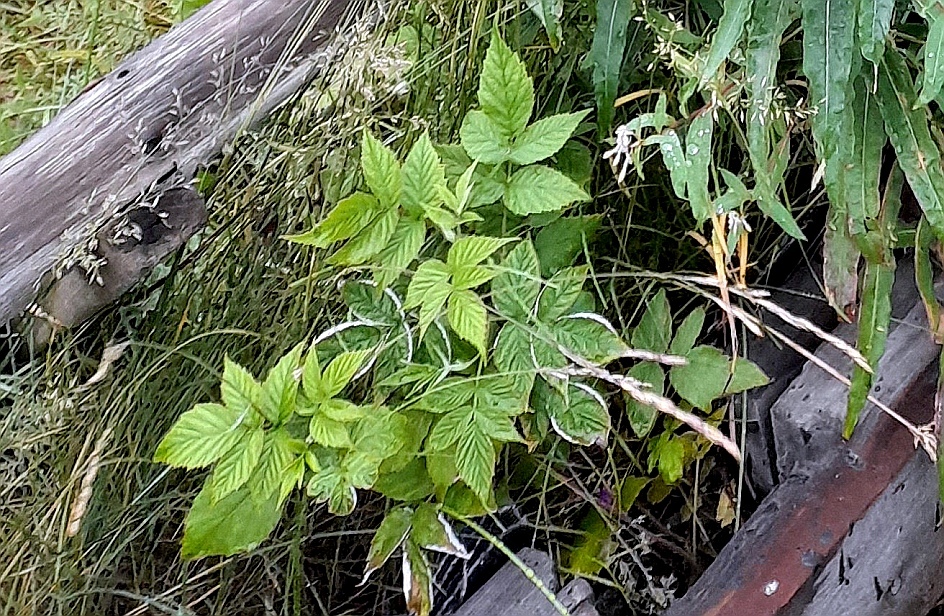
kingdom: Plantae
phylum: Tracheophyta
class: Magnoliopsida
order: Rosales
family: Rosaceae
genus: Rubus
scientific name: Rubus idaeus
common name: Raspberry
